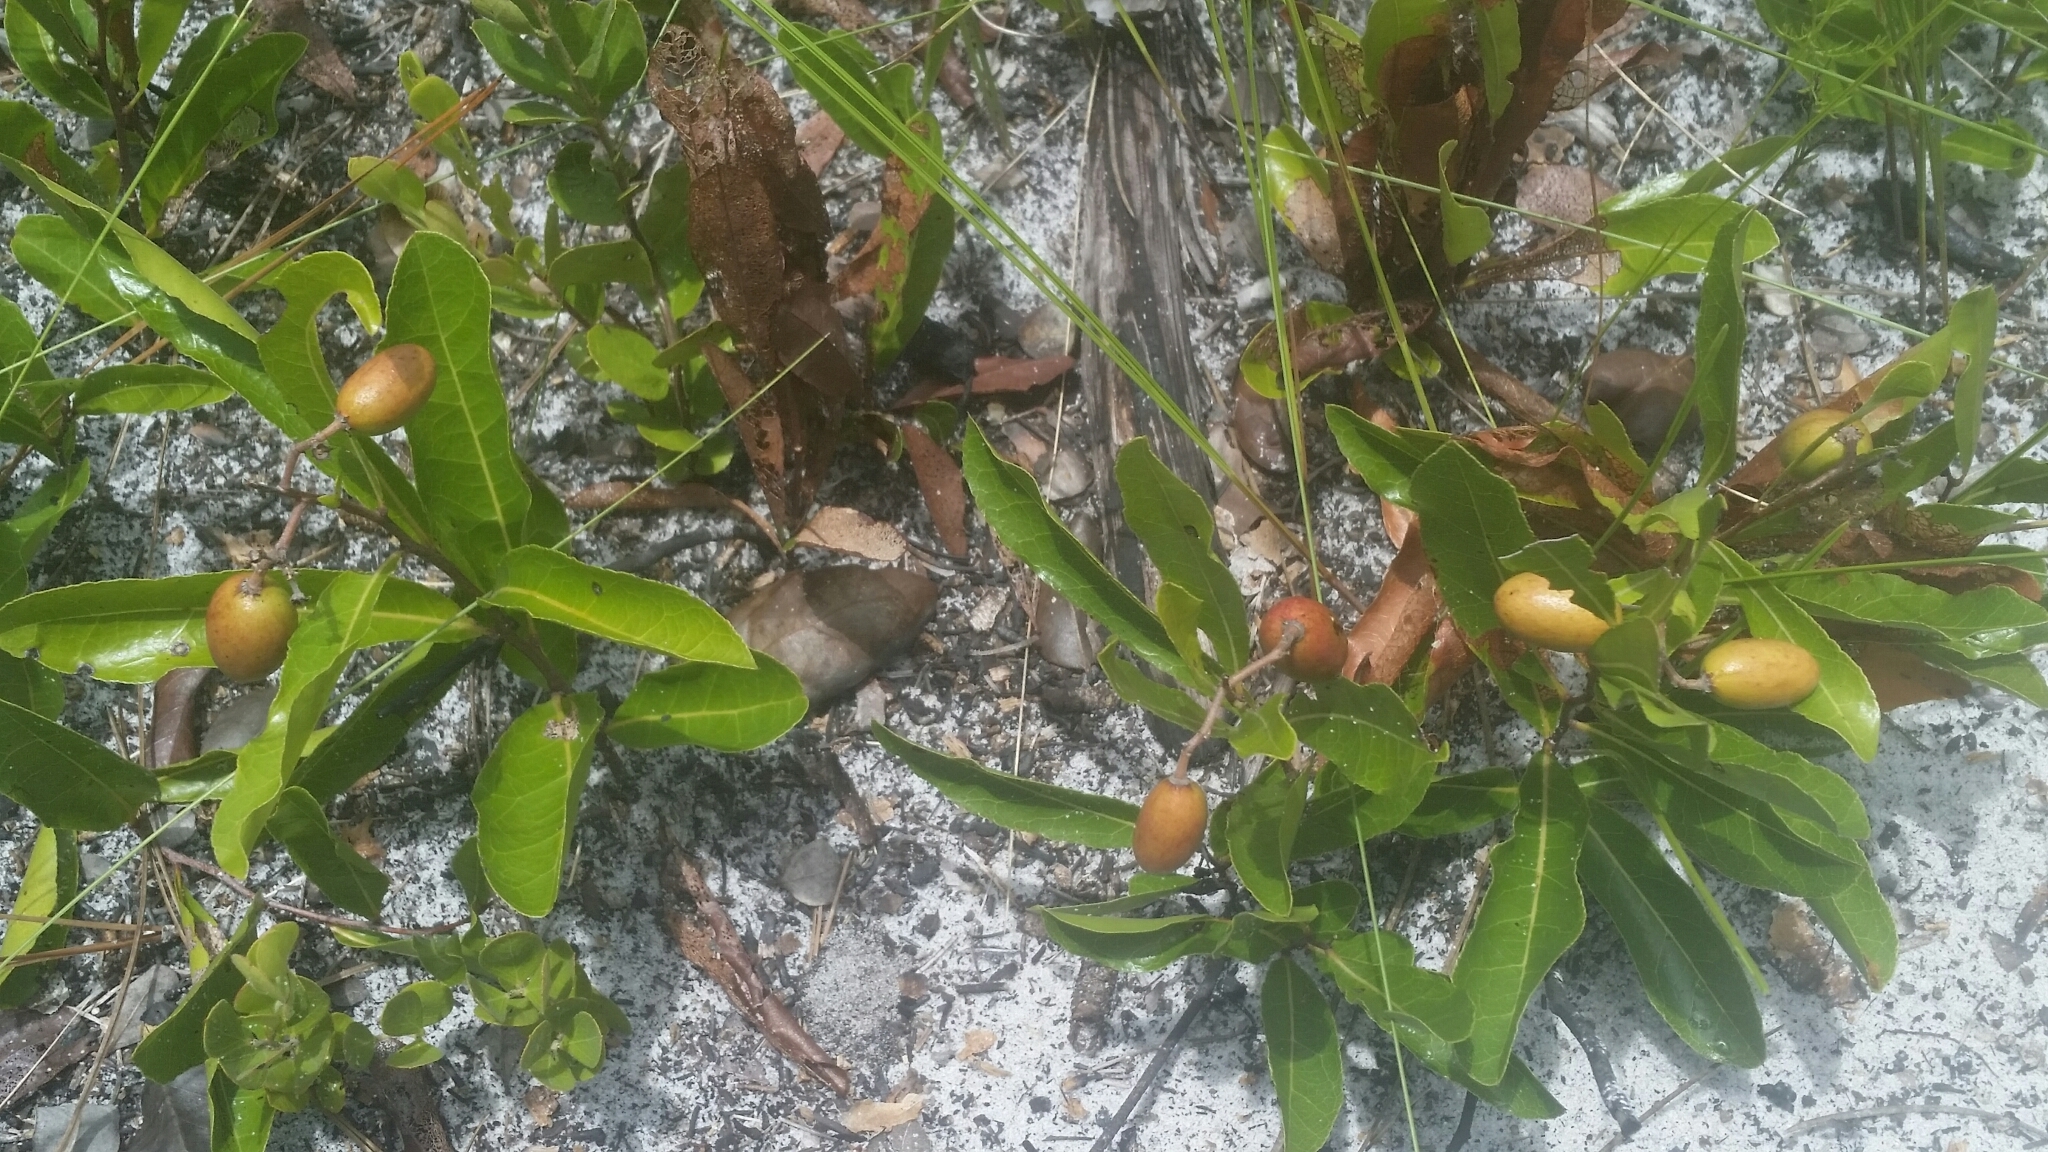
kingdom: Plantae
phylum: Tracheophyta
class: Magnoliopsida
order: Malpighiales
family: Chrysobalanaceae
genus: Geobalanus
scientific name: Geobalanus oblongifolius
